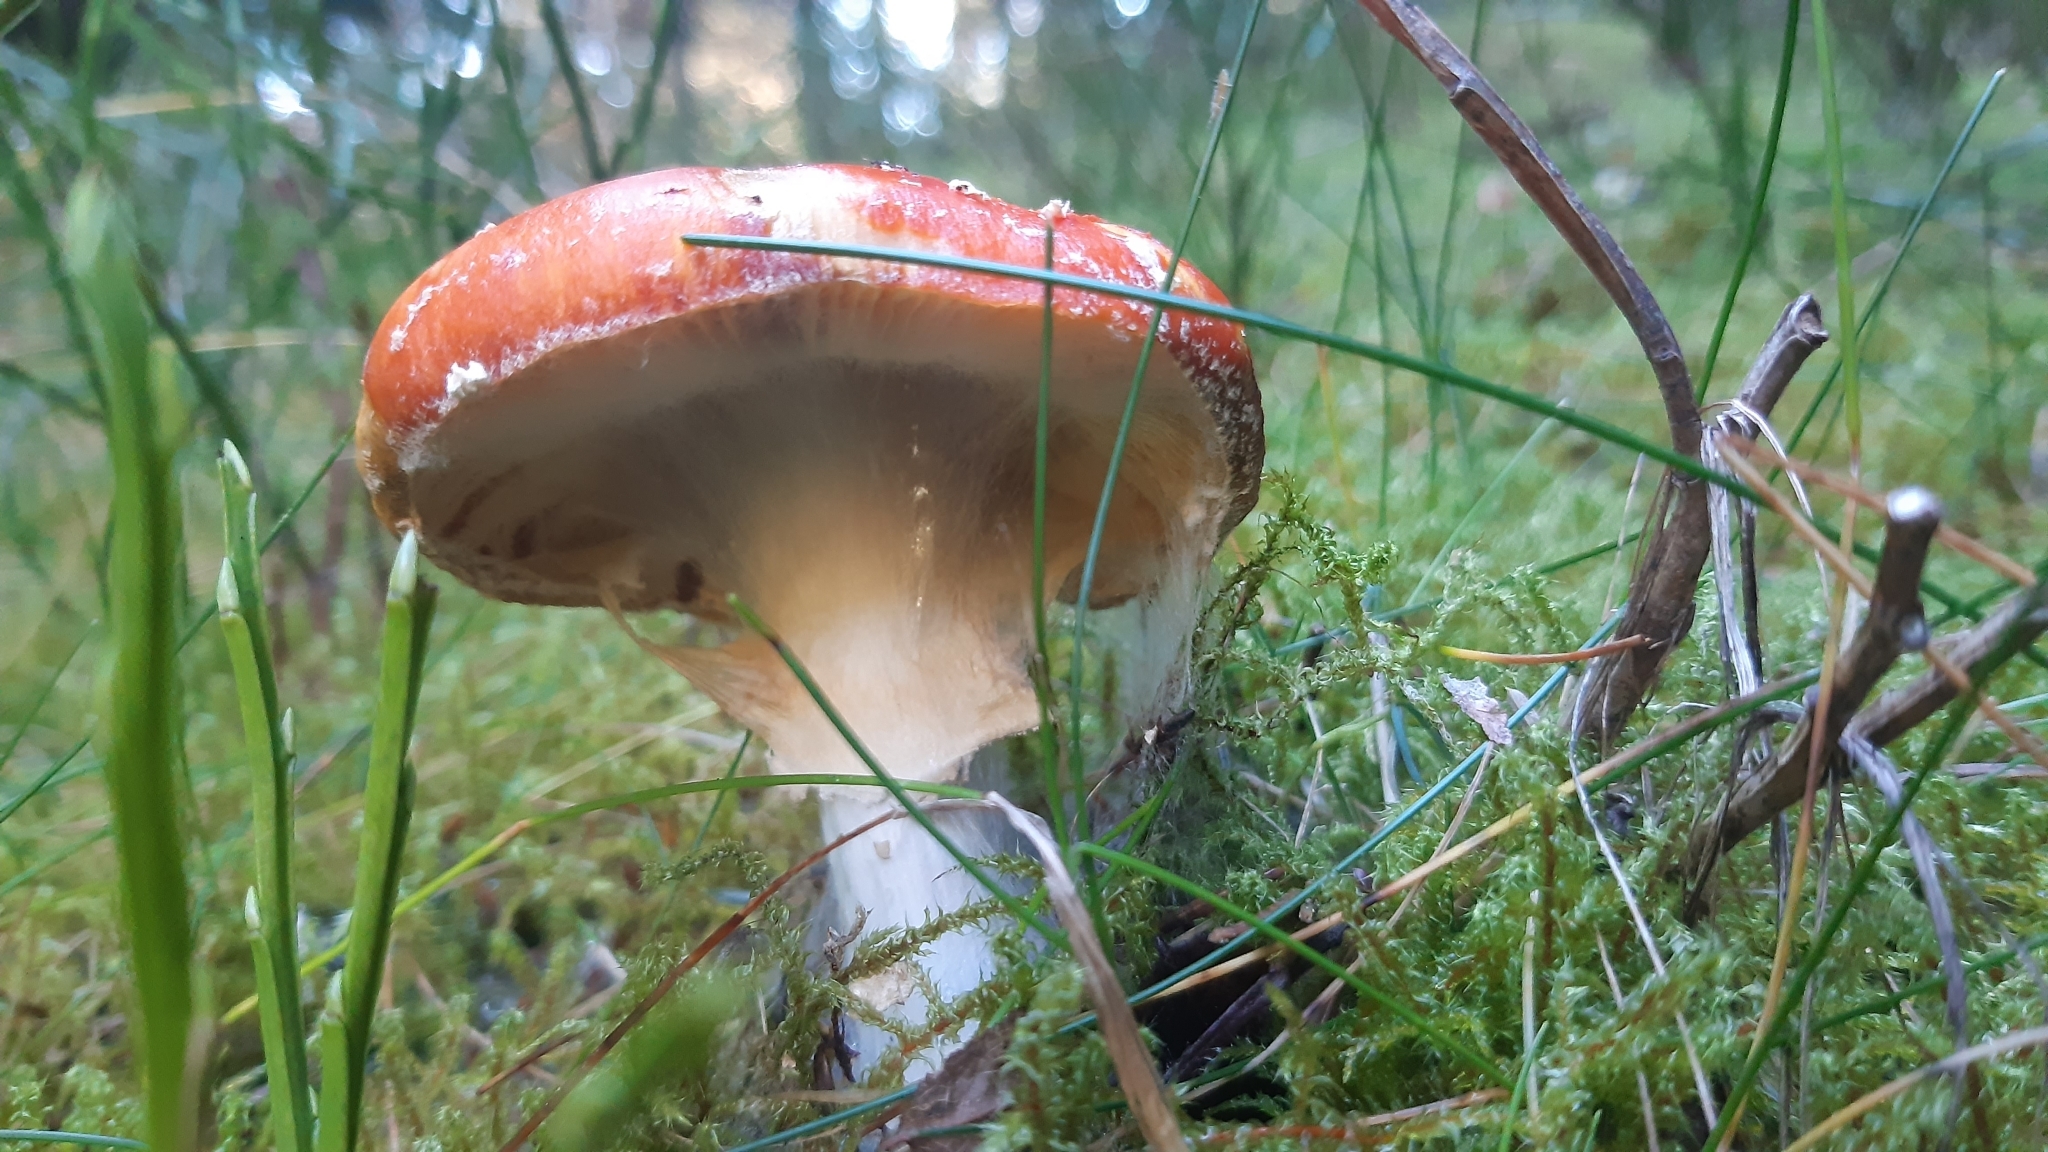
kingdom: Fungi
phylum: Basidiomycota
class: Agaricomycetes
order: Agaricales
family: Amanitaceae
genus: Amanita
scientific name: Amanita muscaria
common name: Fly agaric
